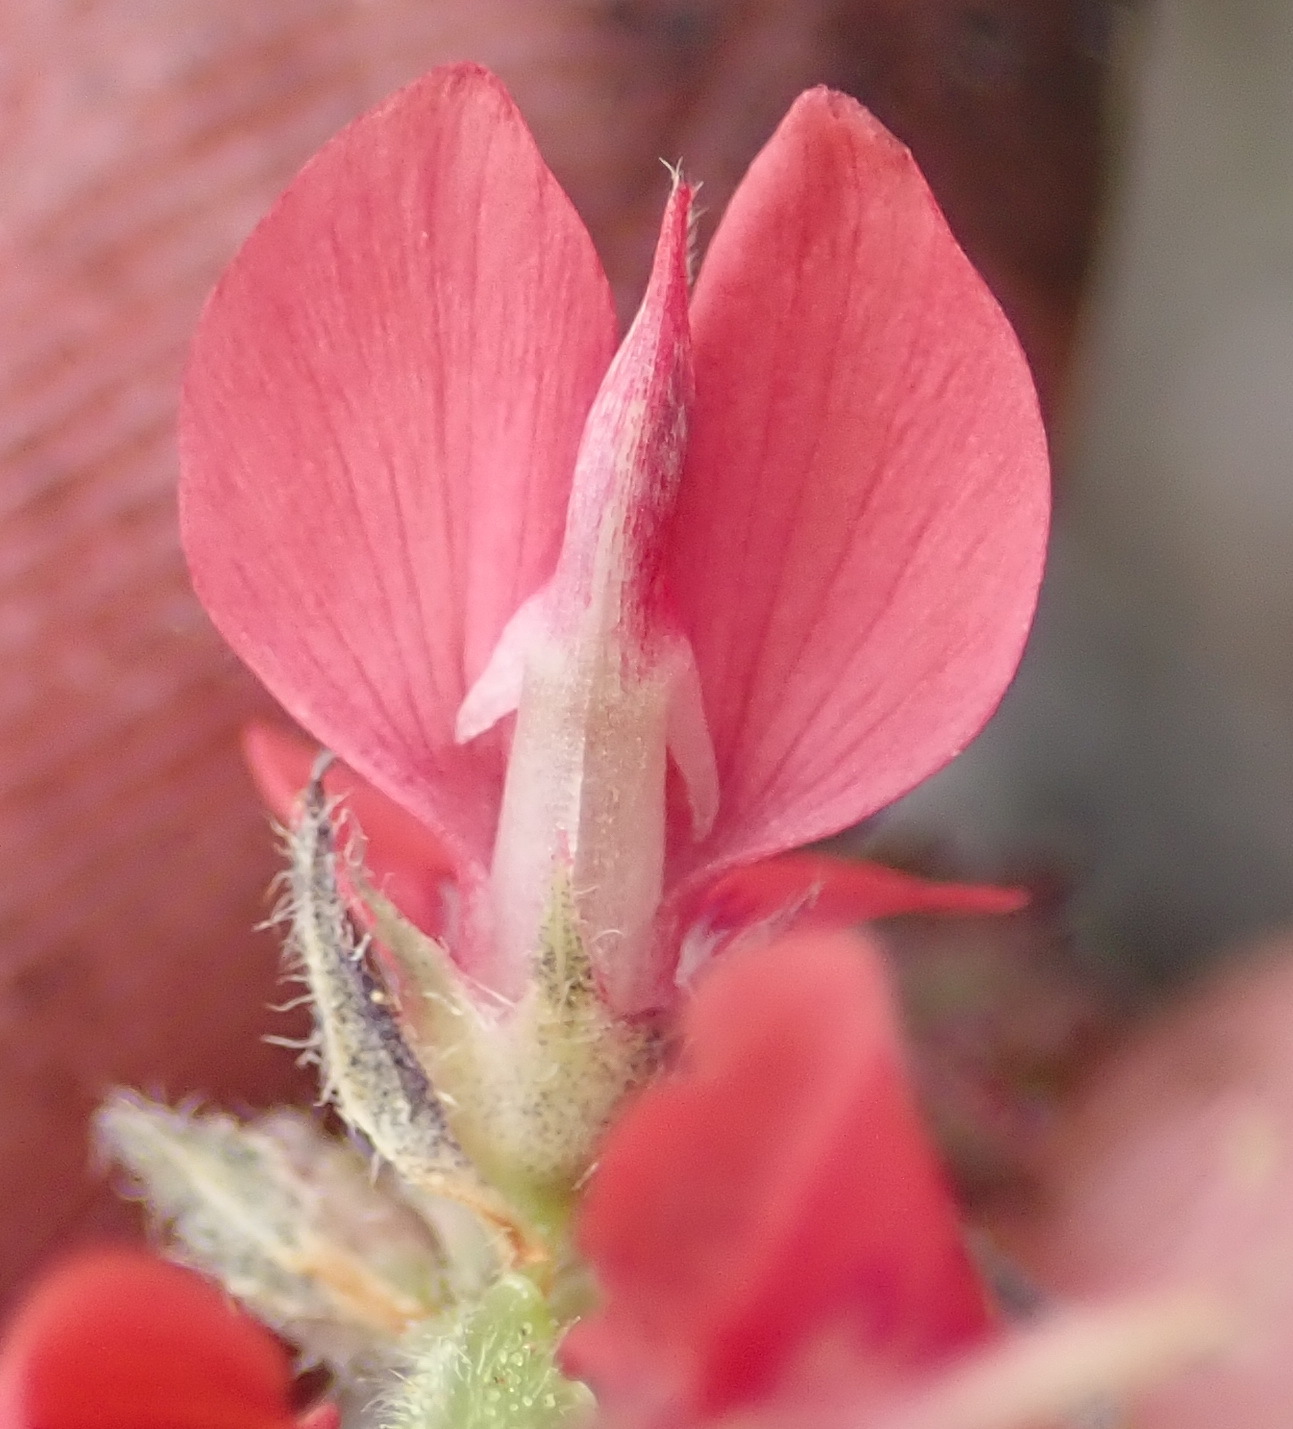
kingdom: Plantae
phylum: Tracheophyta
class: Magnoliopsida
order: Fabales
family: Fabaceae
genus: Indigofera
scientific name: Indigofera alpina
